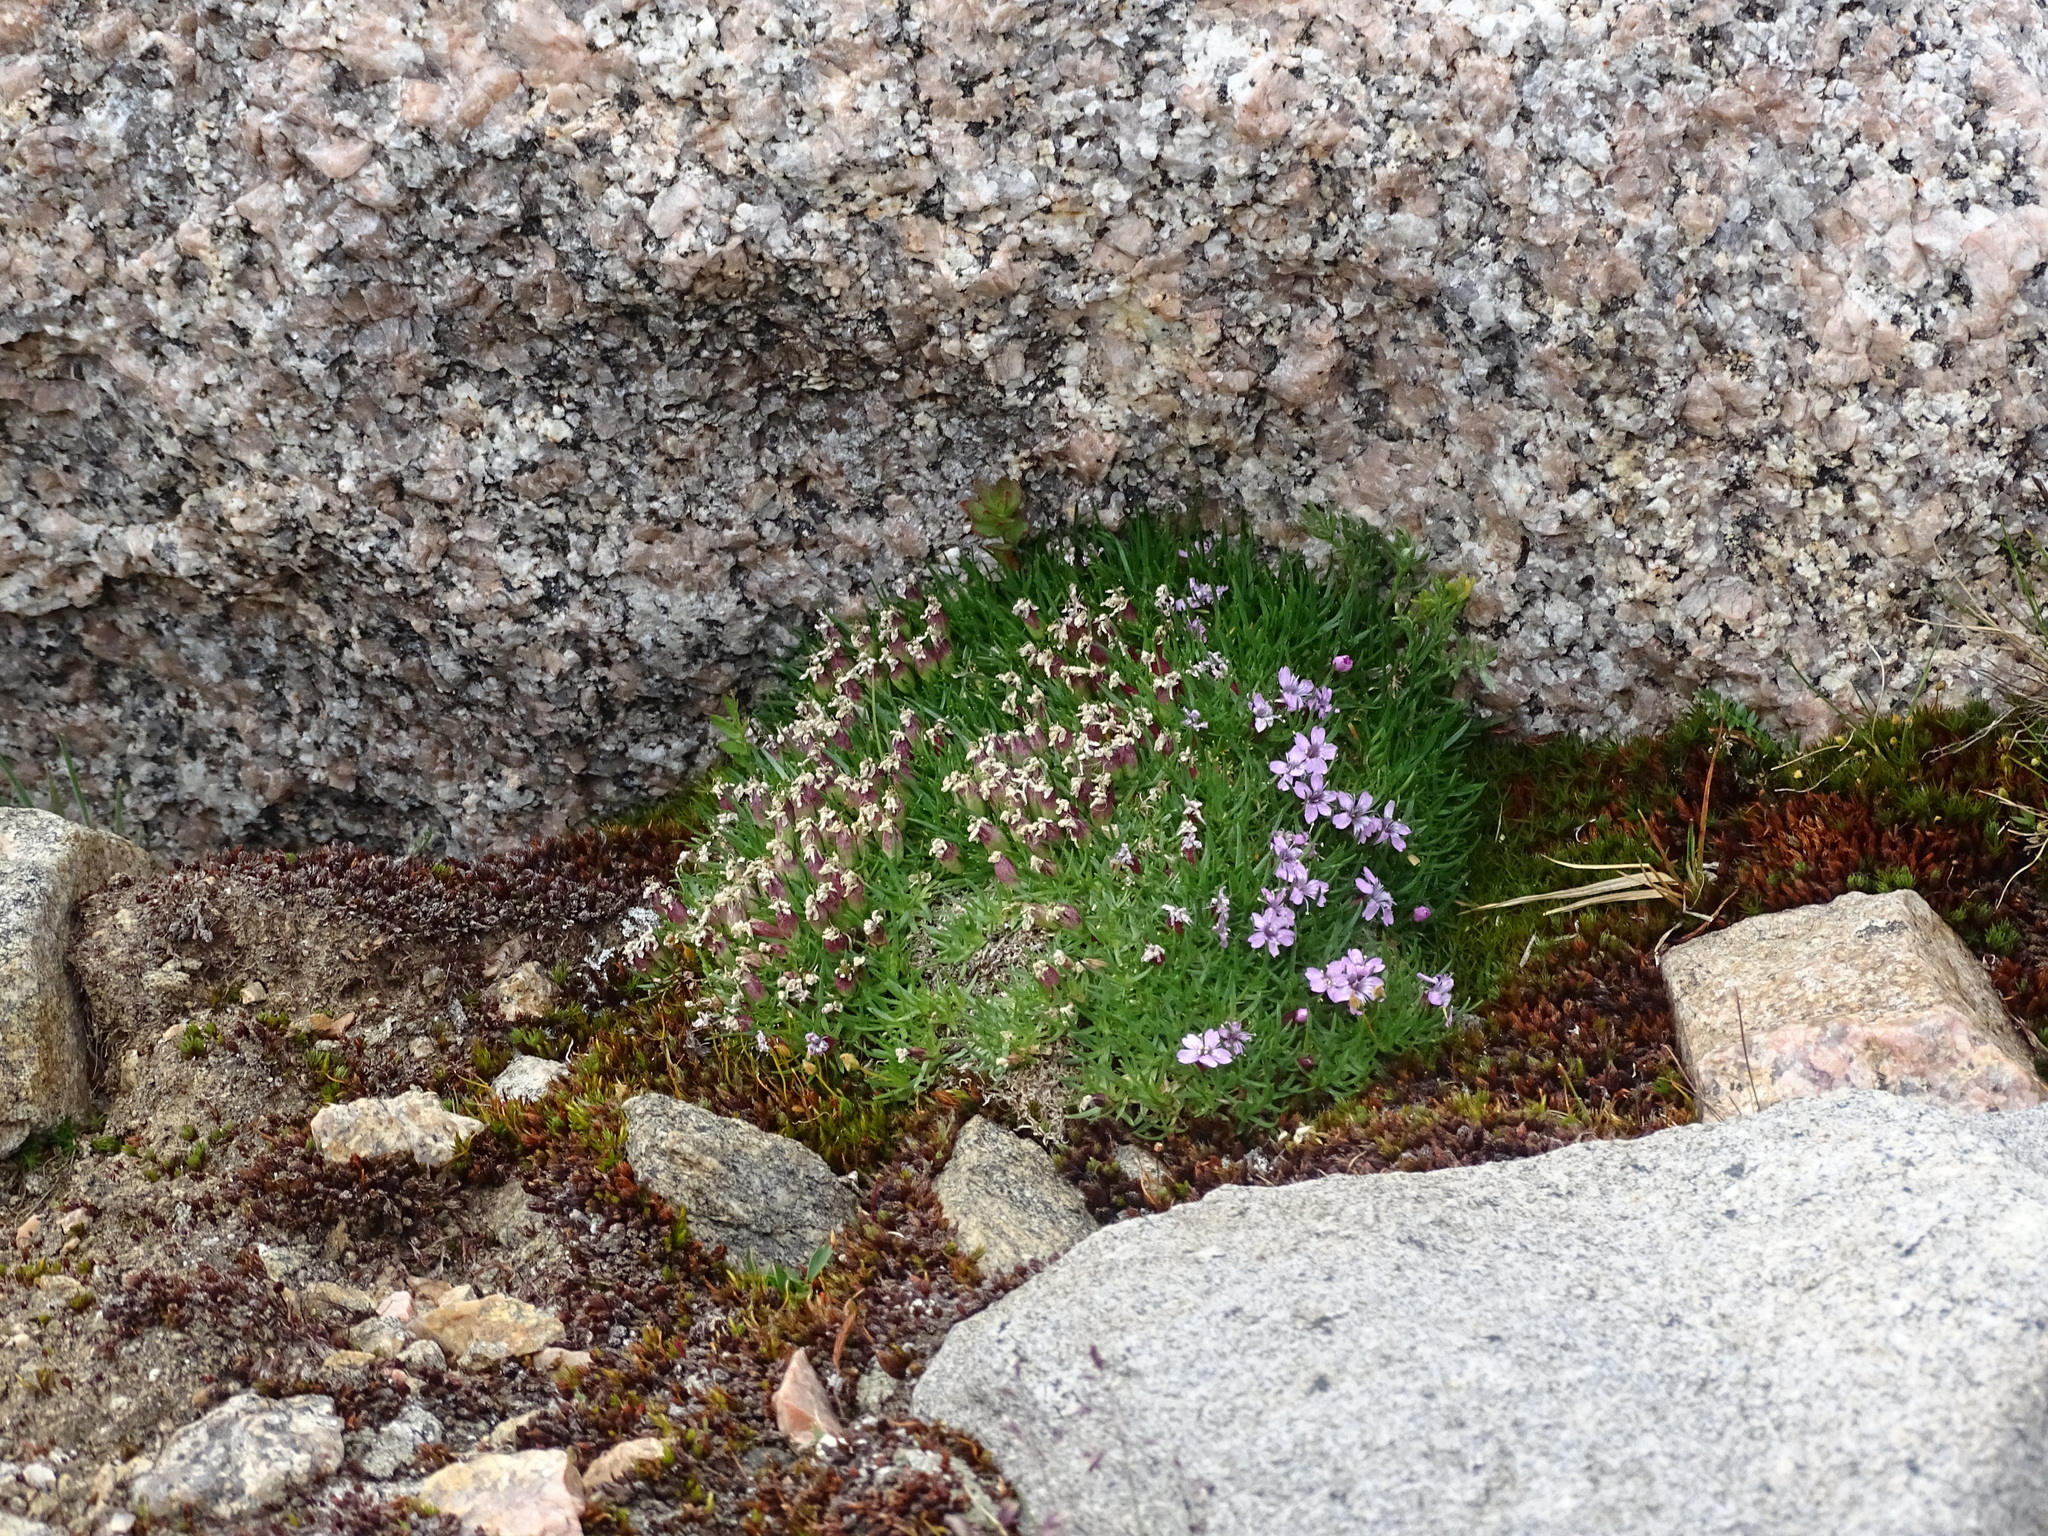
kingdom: Plantae
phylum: Tracheophyta
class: Magnoliopsida
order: Caryophyllales
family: Caryophyllaceae
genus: Silene
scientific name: Silene acaulis
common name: Moss campion
